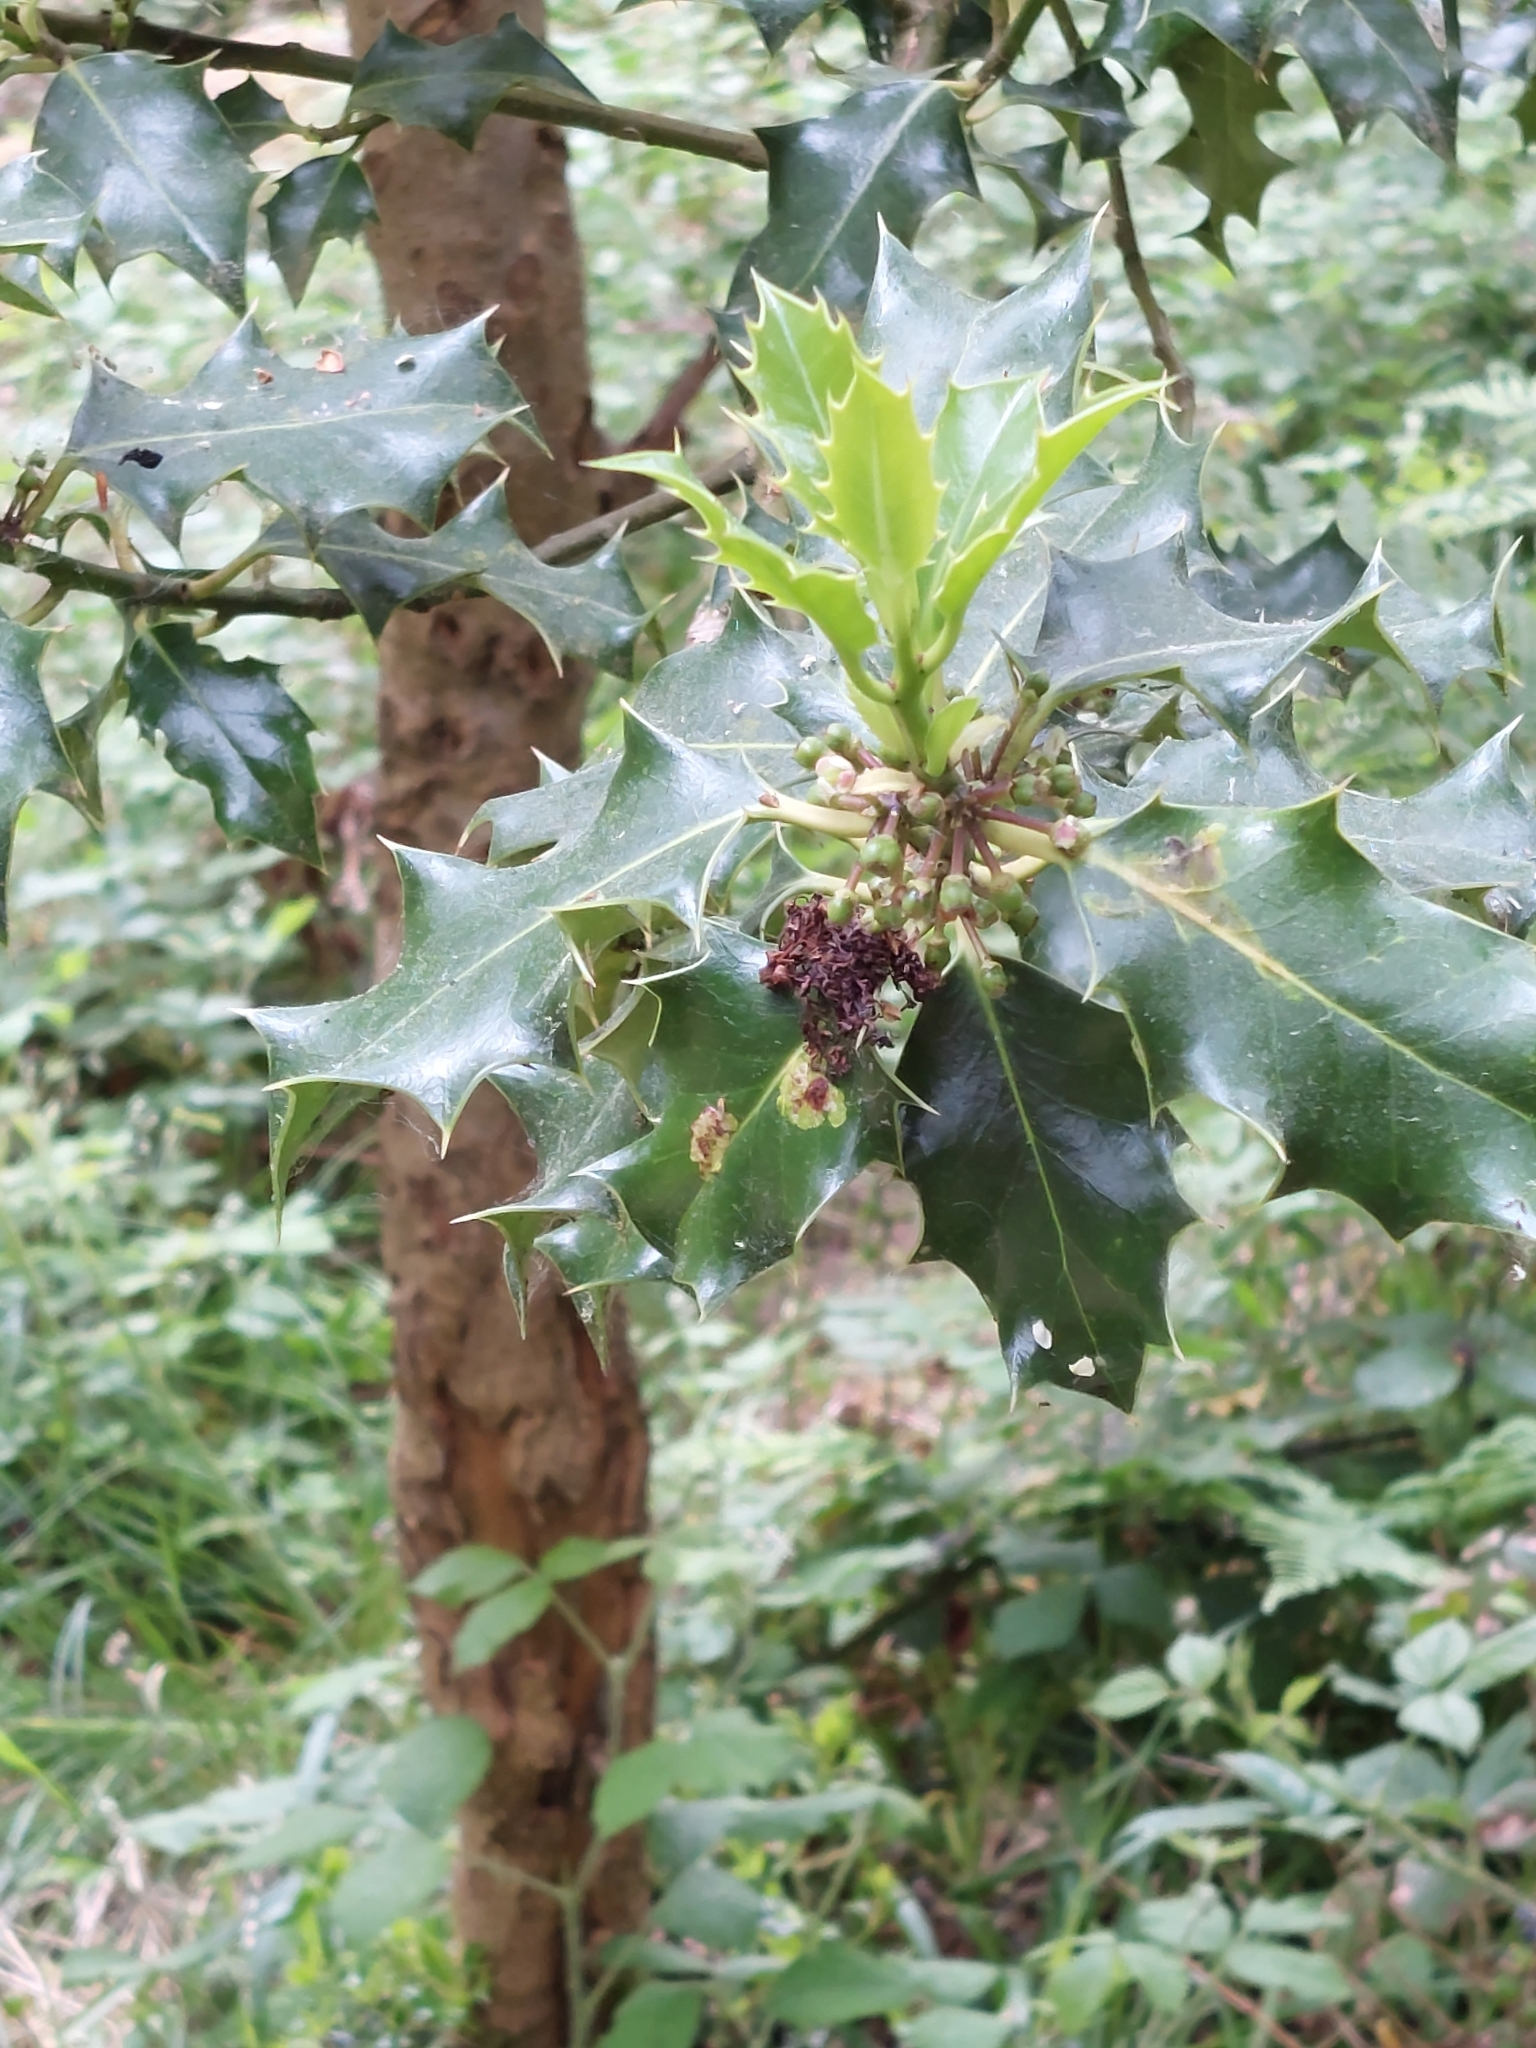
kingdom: Plantae
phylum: Tracheophyta
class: Magnoliopsida
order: Aquifoliales
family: Aquifoliaceae
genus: Ilex
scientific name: Ilex aquifolium
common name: English holly
